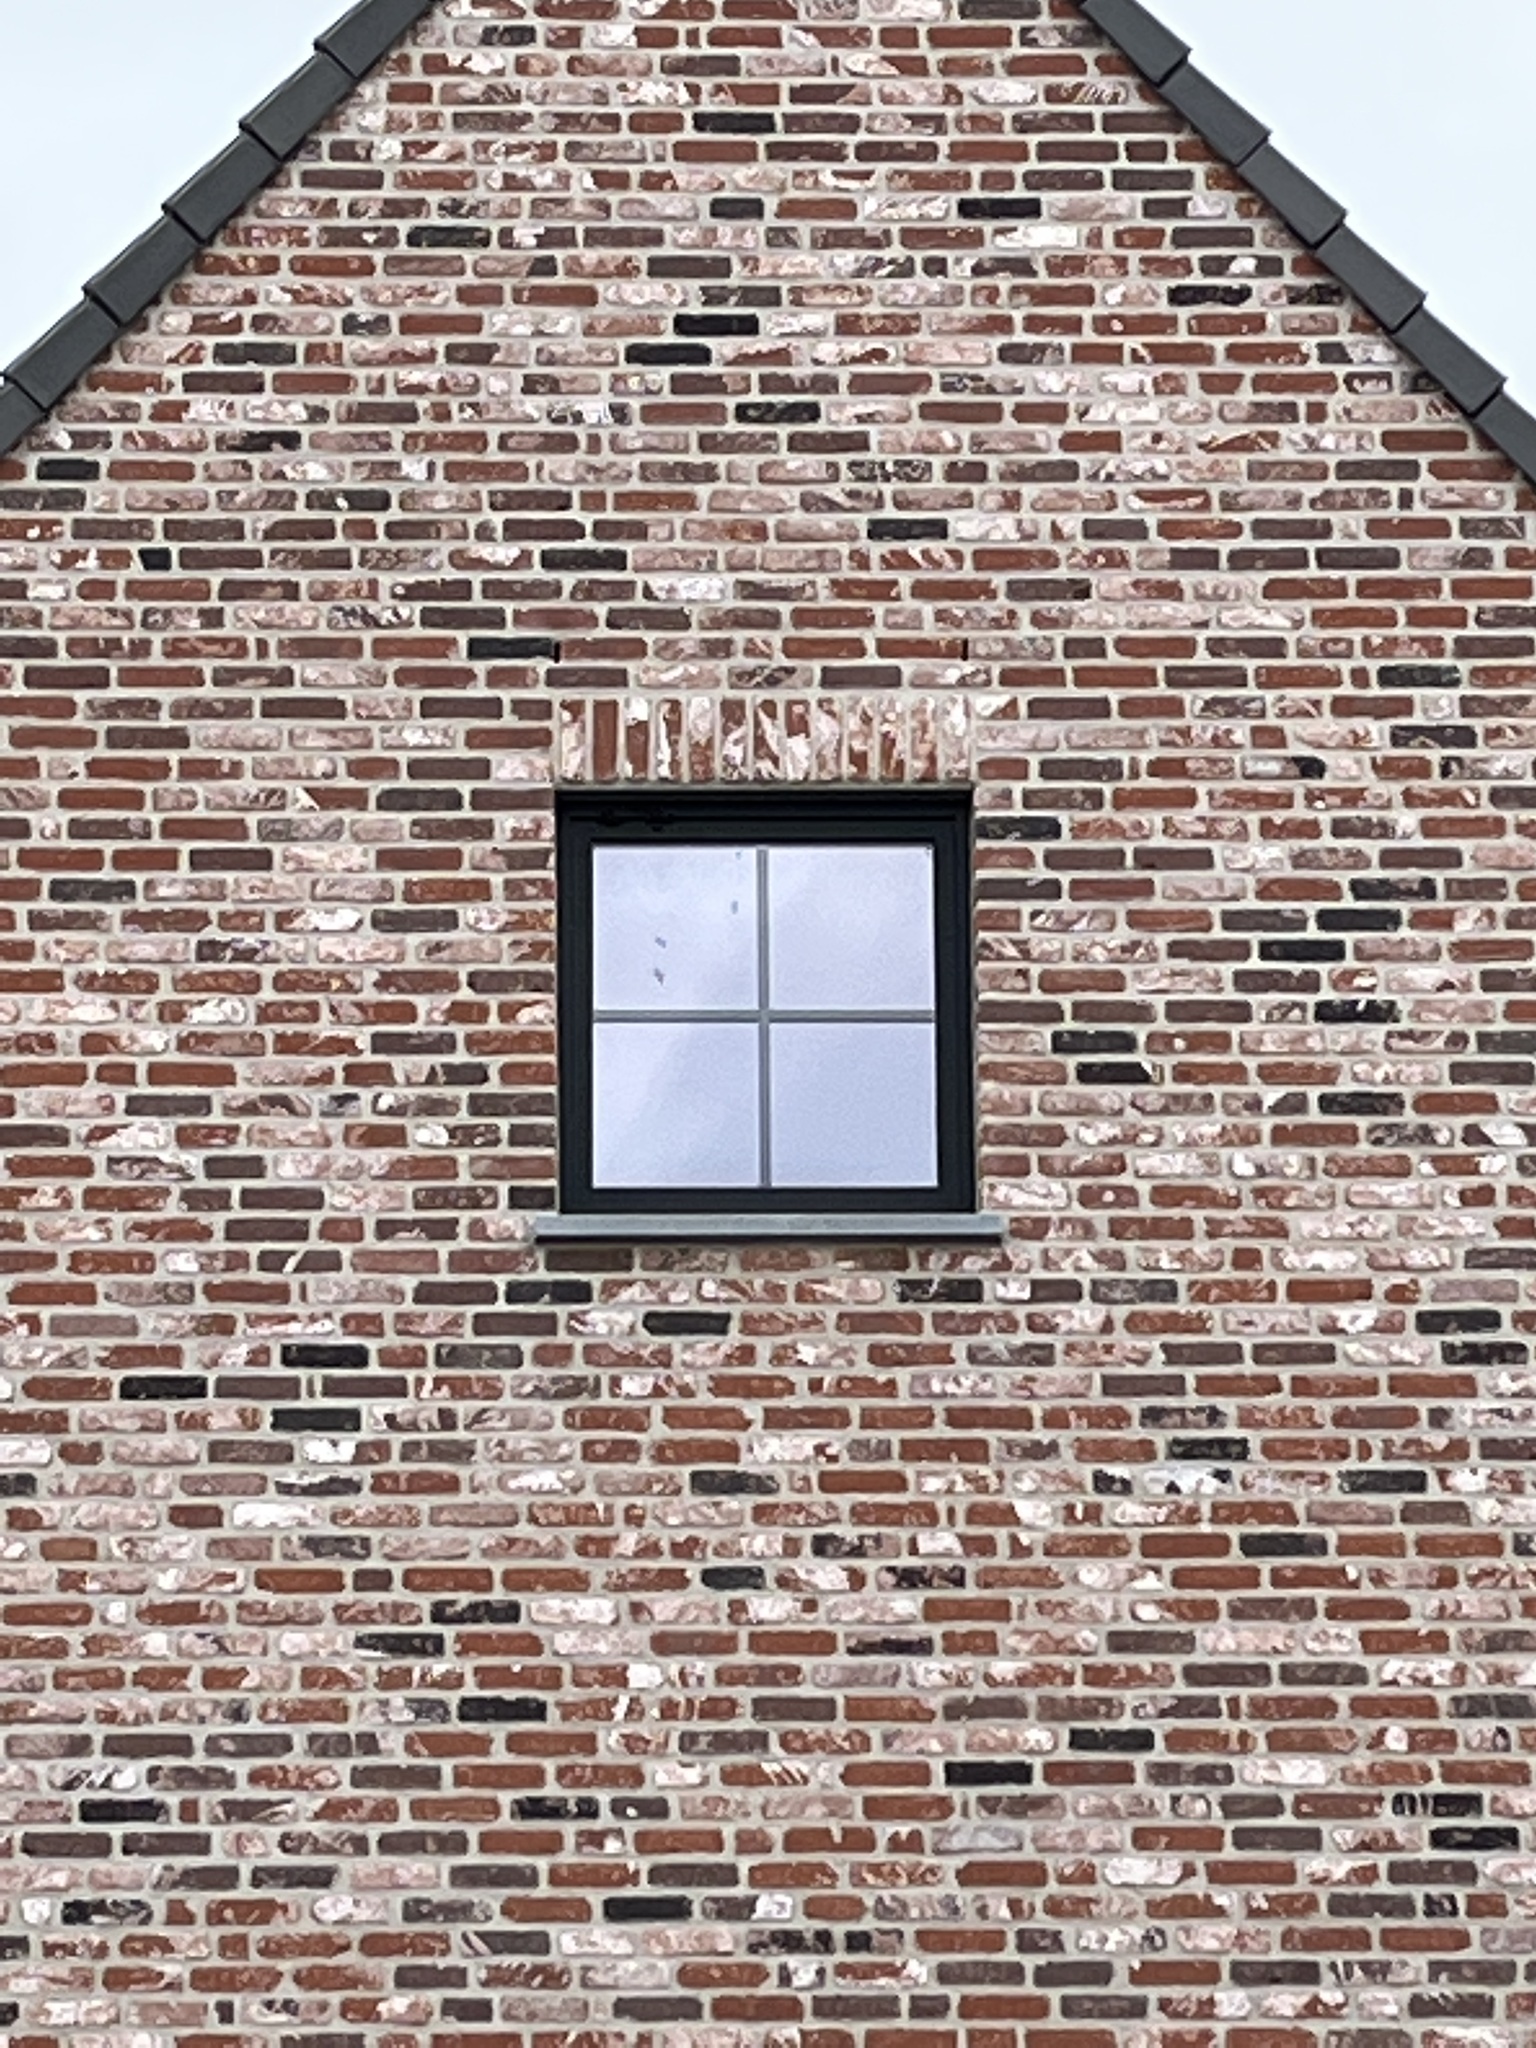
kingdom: Animalia
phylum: Arthropoda
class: Insecta
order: Hymenoptera
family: Vespidae
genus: Vespa
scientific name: Vespa velutina
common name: Asian hornet
